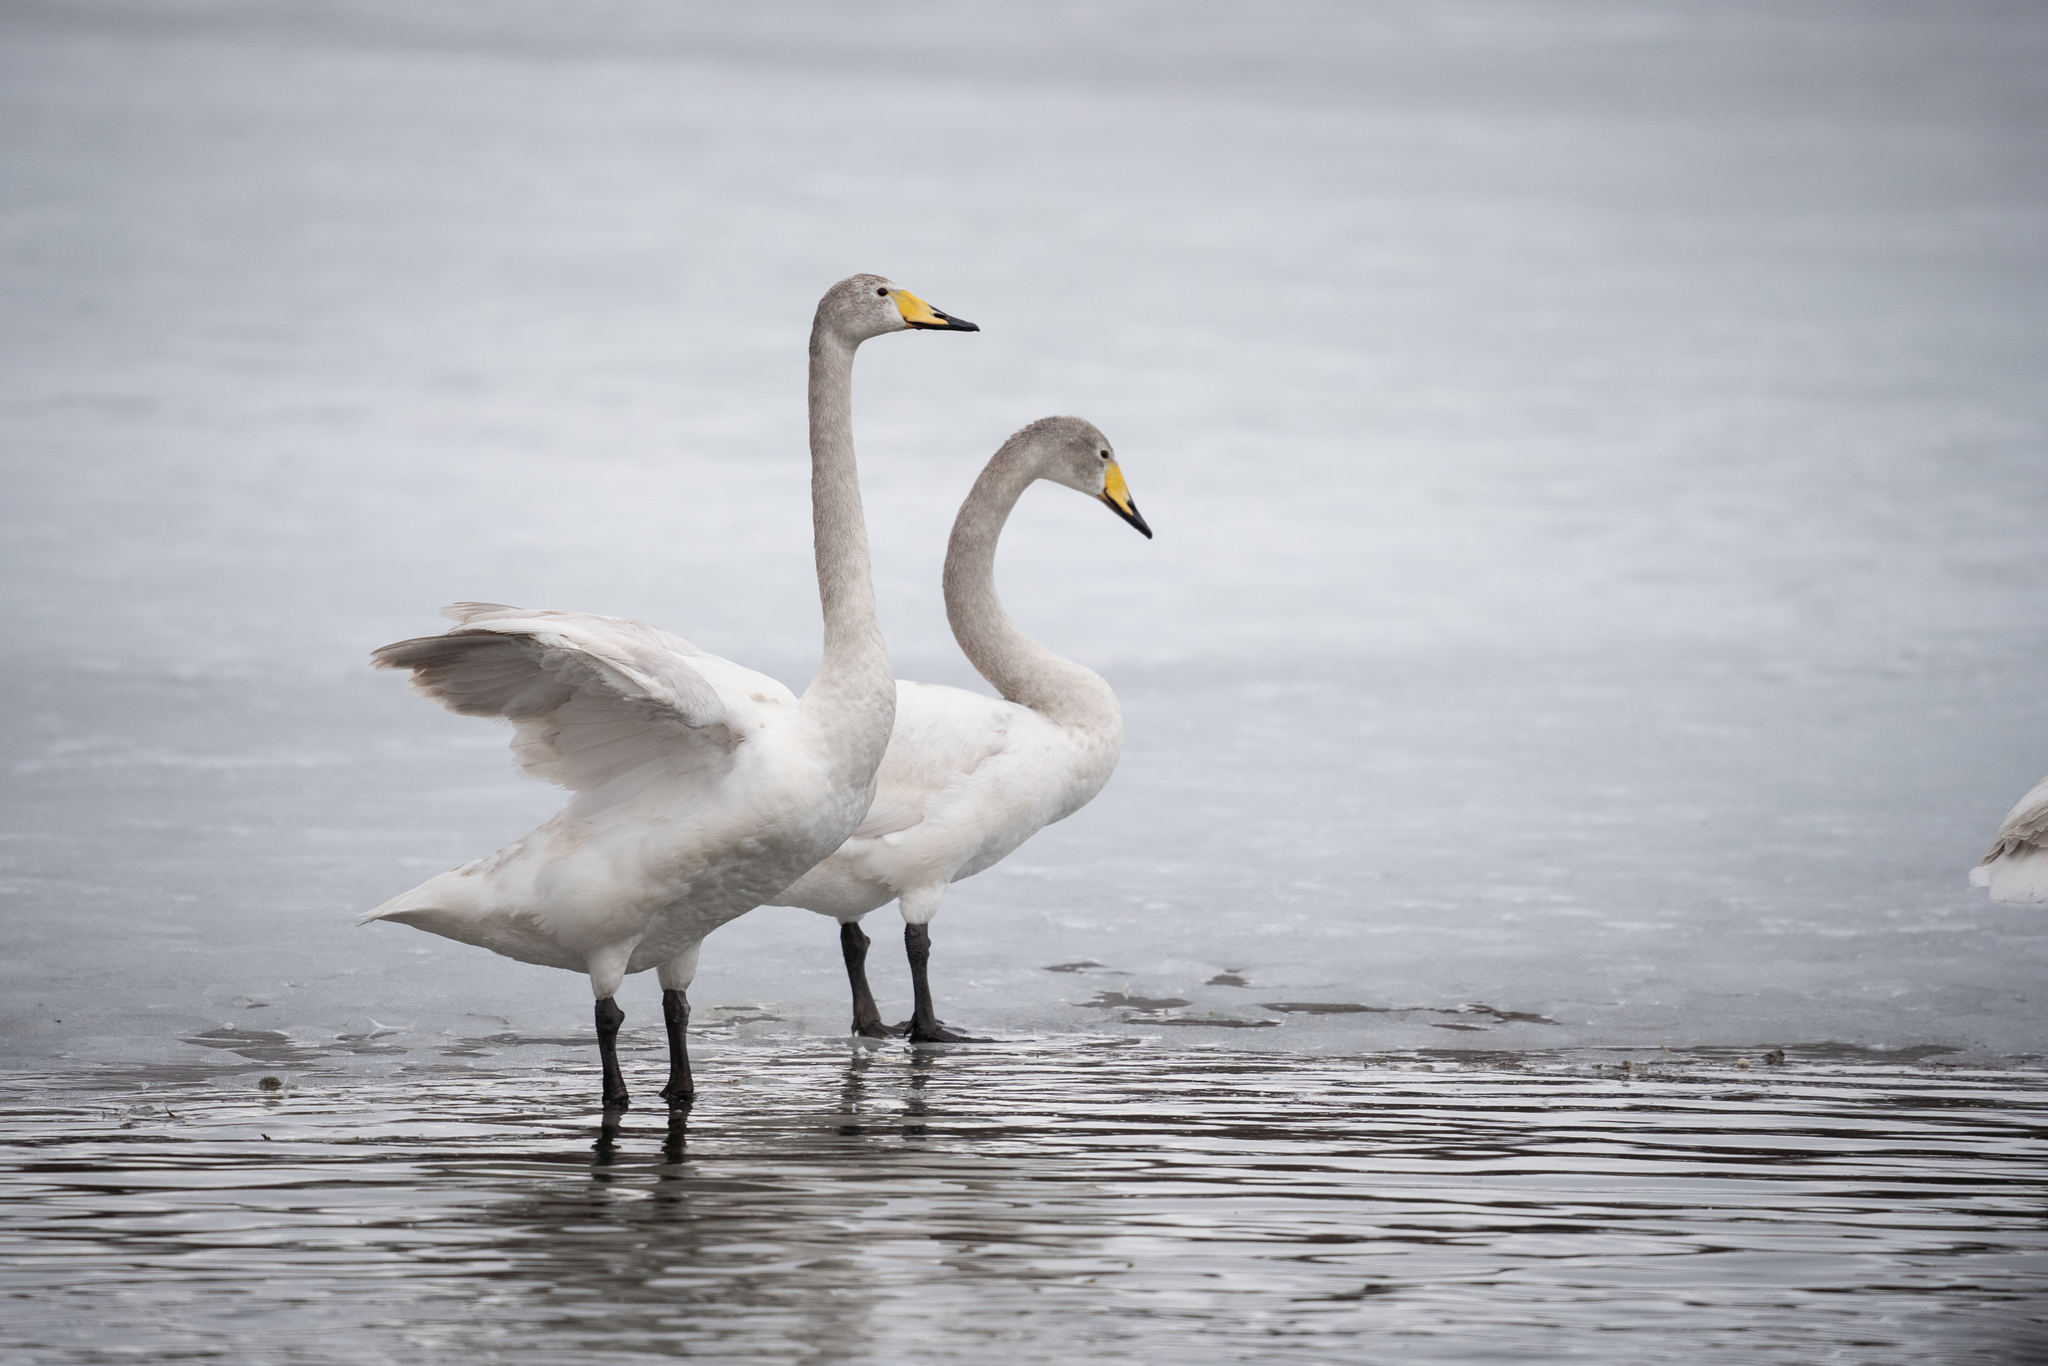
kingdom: Animalia
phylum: Chordata
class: Aves
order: Anseriformes
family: Anatidae
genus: Cygnus
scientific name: Cygnus cygnus
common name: Whooper swan
